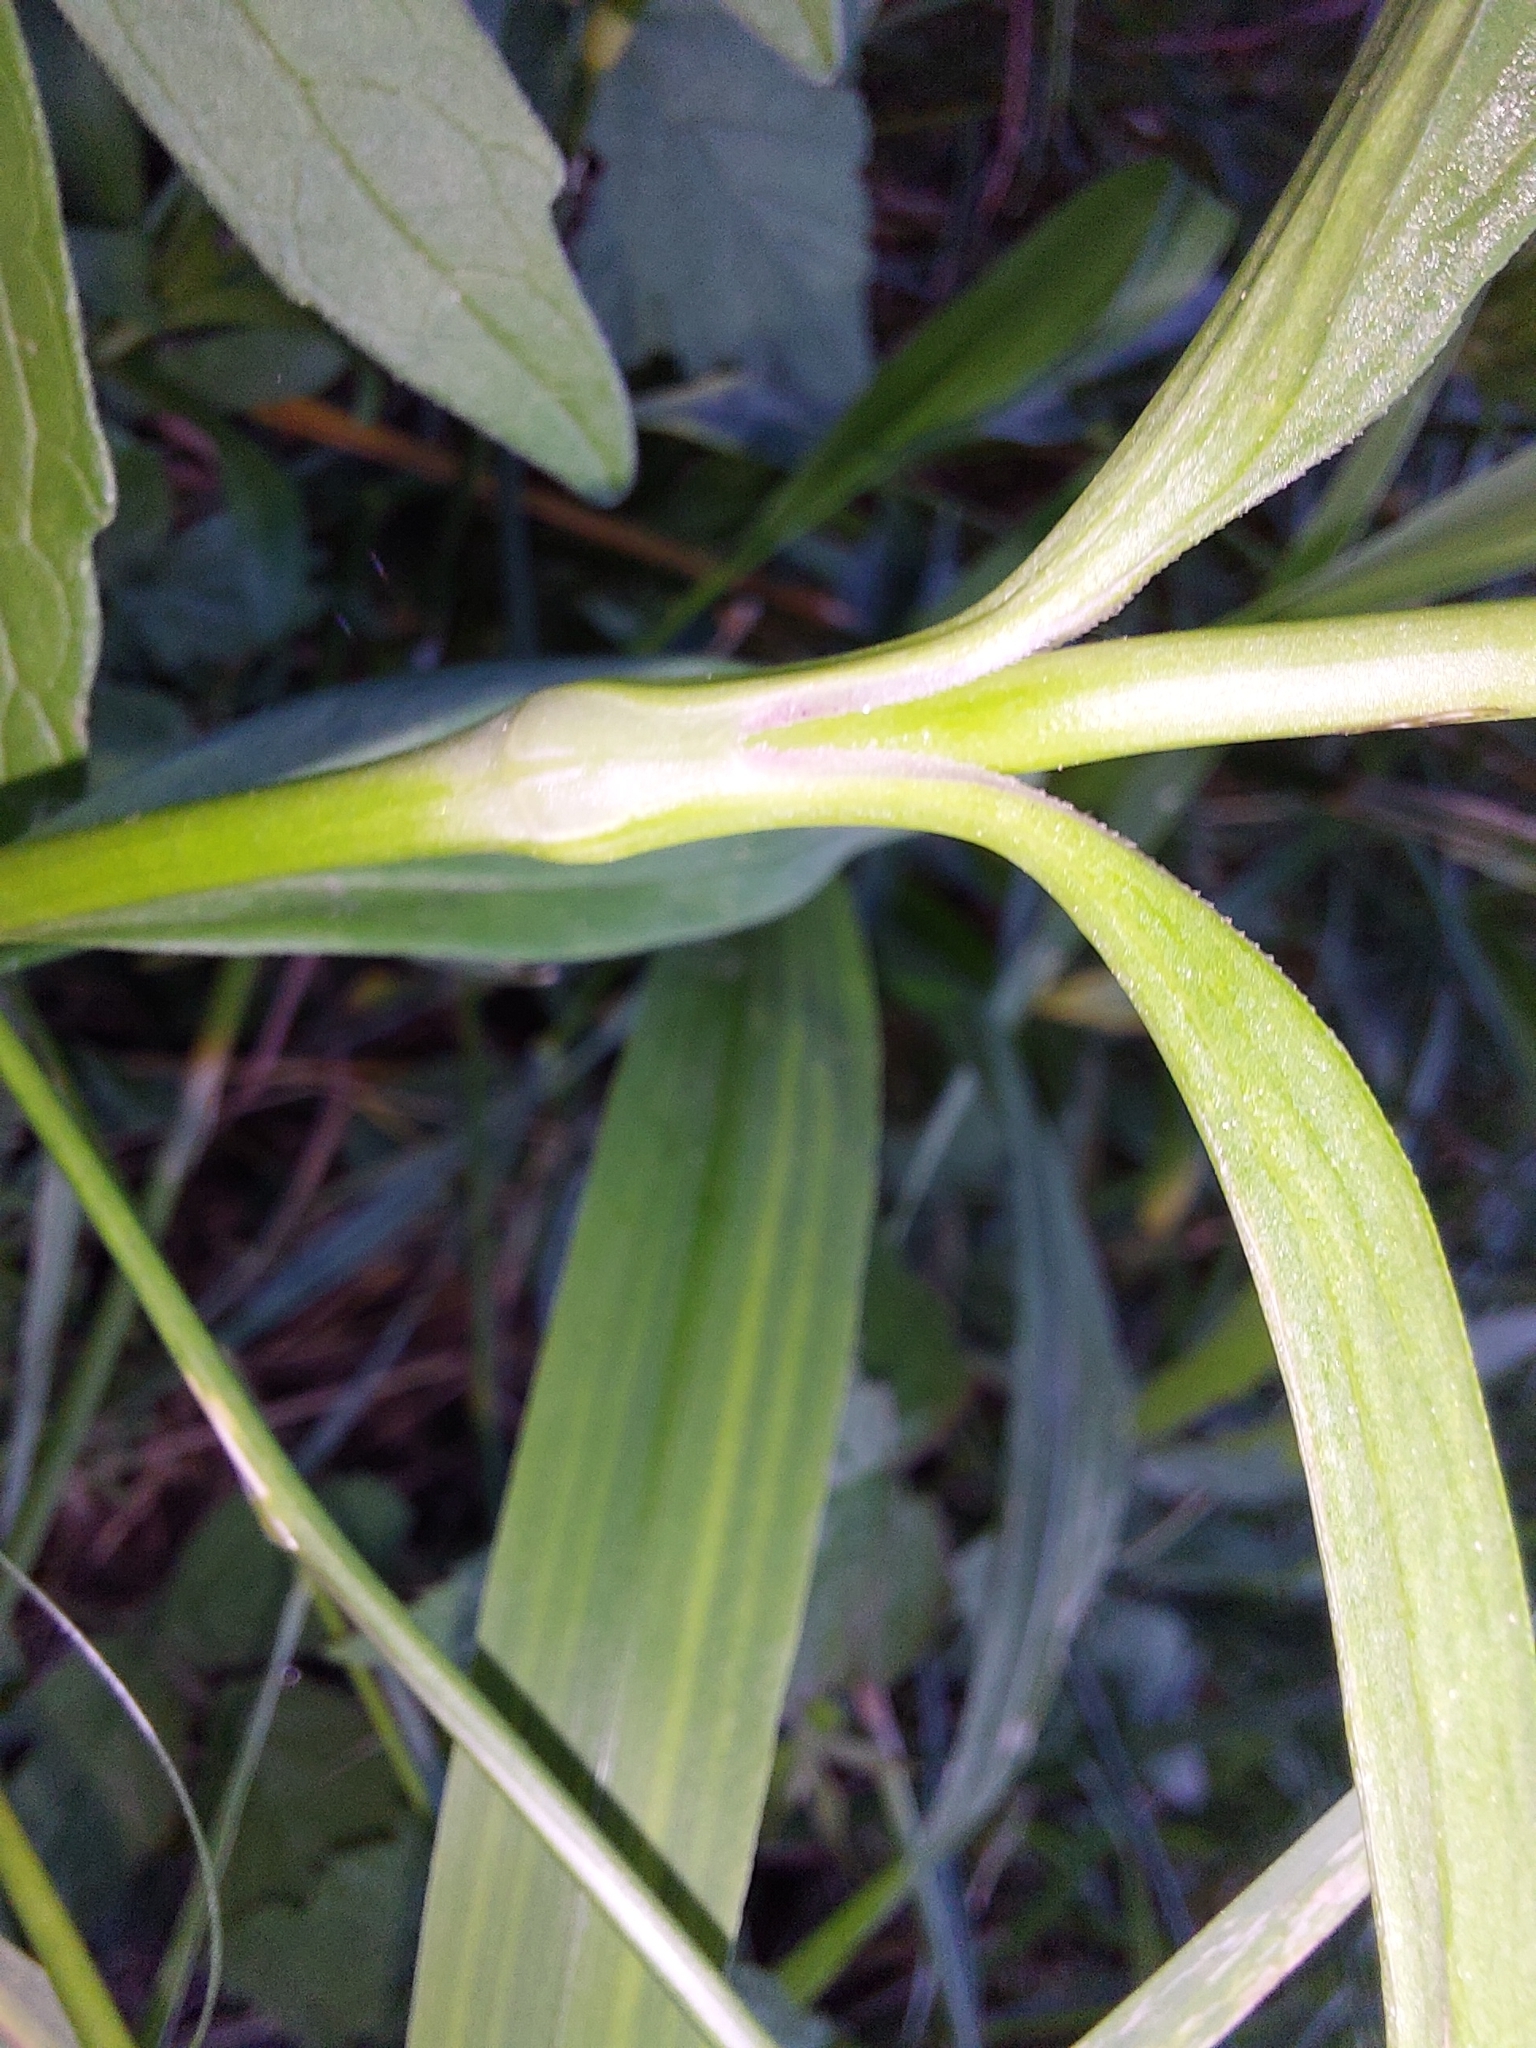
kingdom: Plantae
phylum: Tracheophyta
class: Magnoliopsida
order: Caryophyllales
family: Caryophyllaceae
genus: Dianthus
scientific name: Dianthus barbatus
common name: Sweet-william
